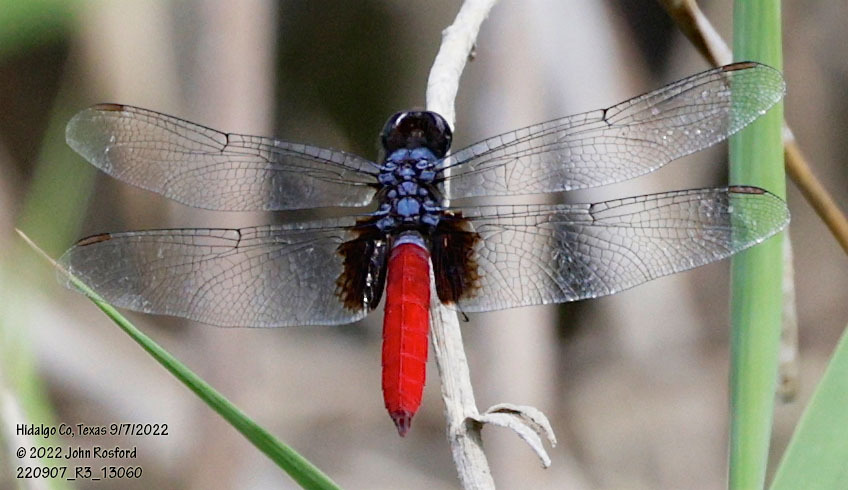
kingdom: Animalia
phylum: Arthropoda
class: Insecta
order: Odonata
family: Libellulidae
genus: Planiplax
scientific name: Planiplax sanguiniventris
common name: Mexican scarlet-tail
